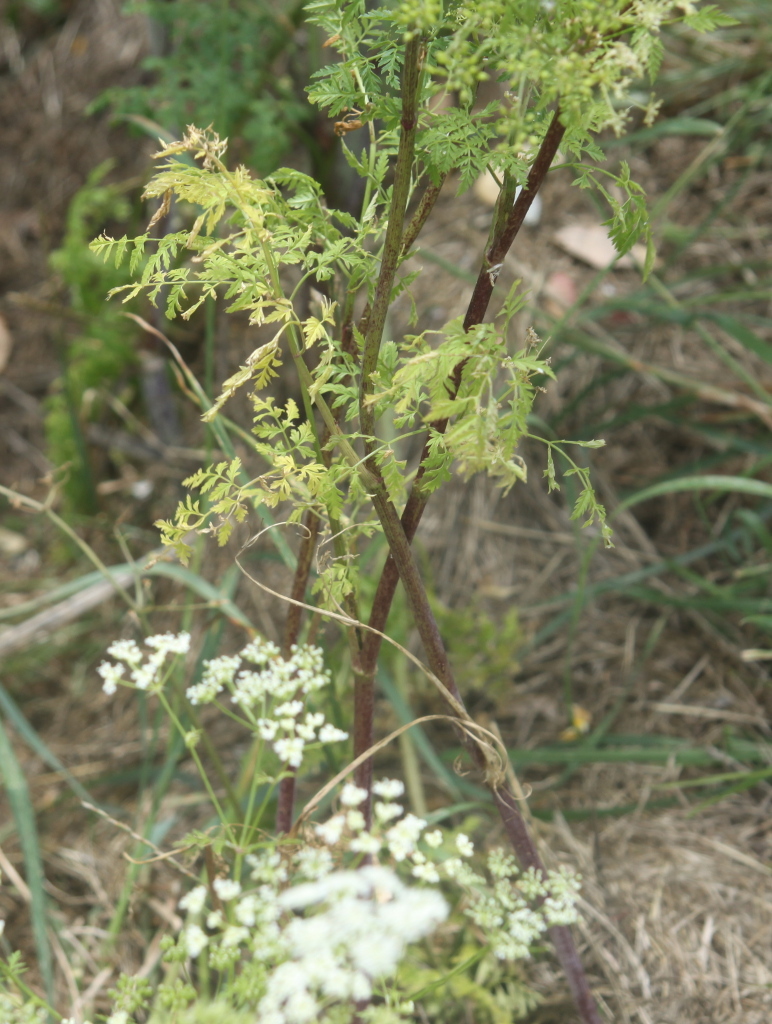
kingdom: Plantae
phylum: Tracheophyta
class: Magnoliopsida
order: Apiales
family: Apiaceae
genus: Conium
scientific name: Conium maculatum
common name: Hemlock
